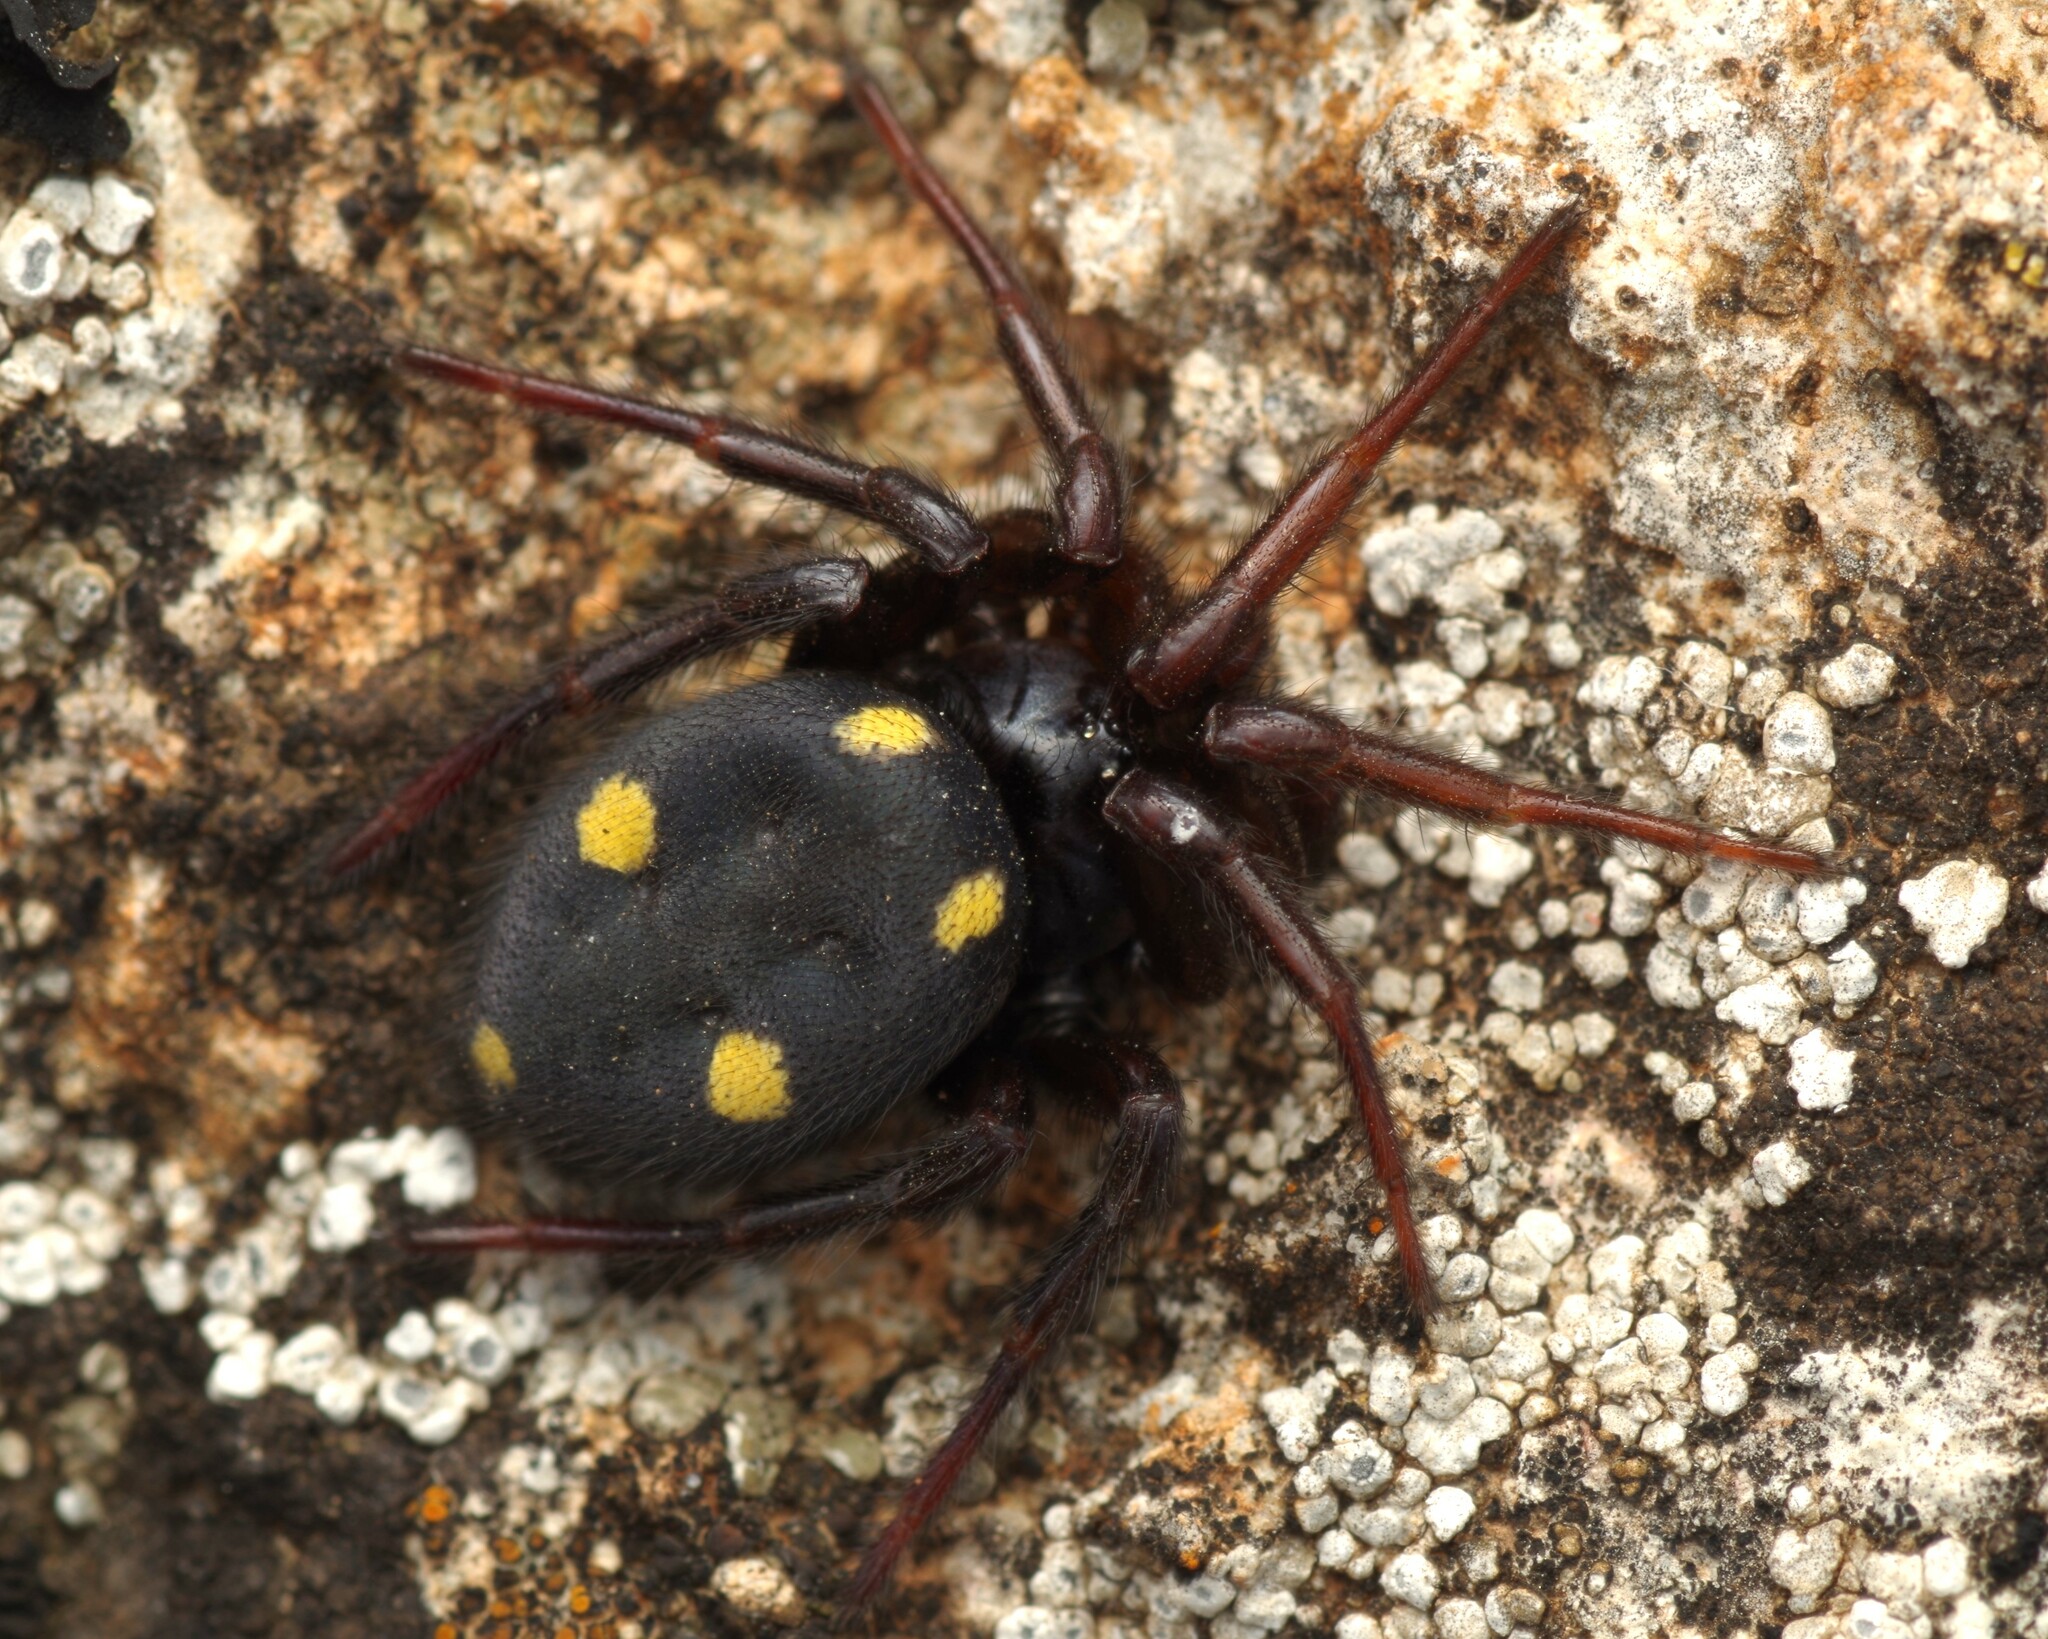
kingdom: Animalia
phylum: Arthropoda
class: Arachnida
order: Araneae
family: Oecobiidae
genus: Uroctea
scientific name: Uroctea durandi
